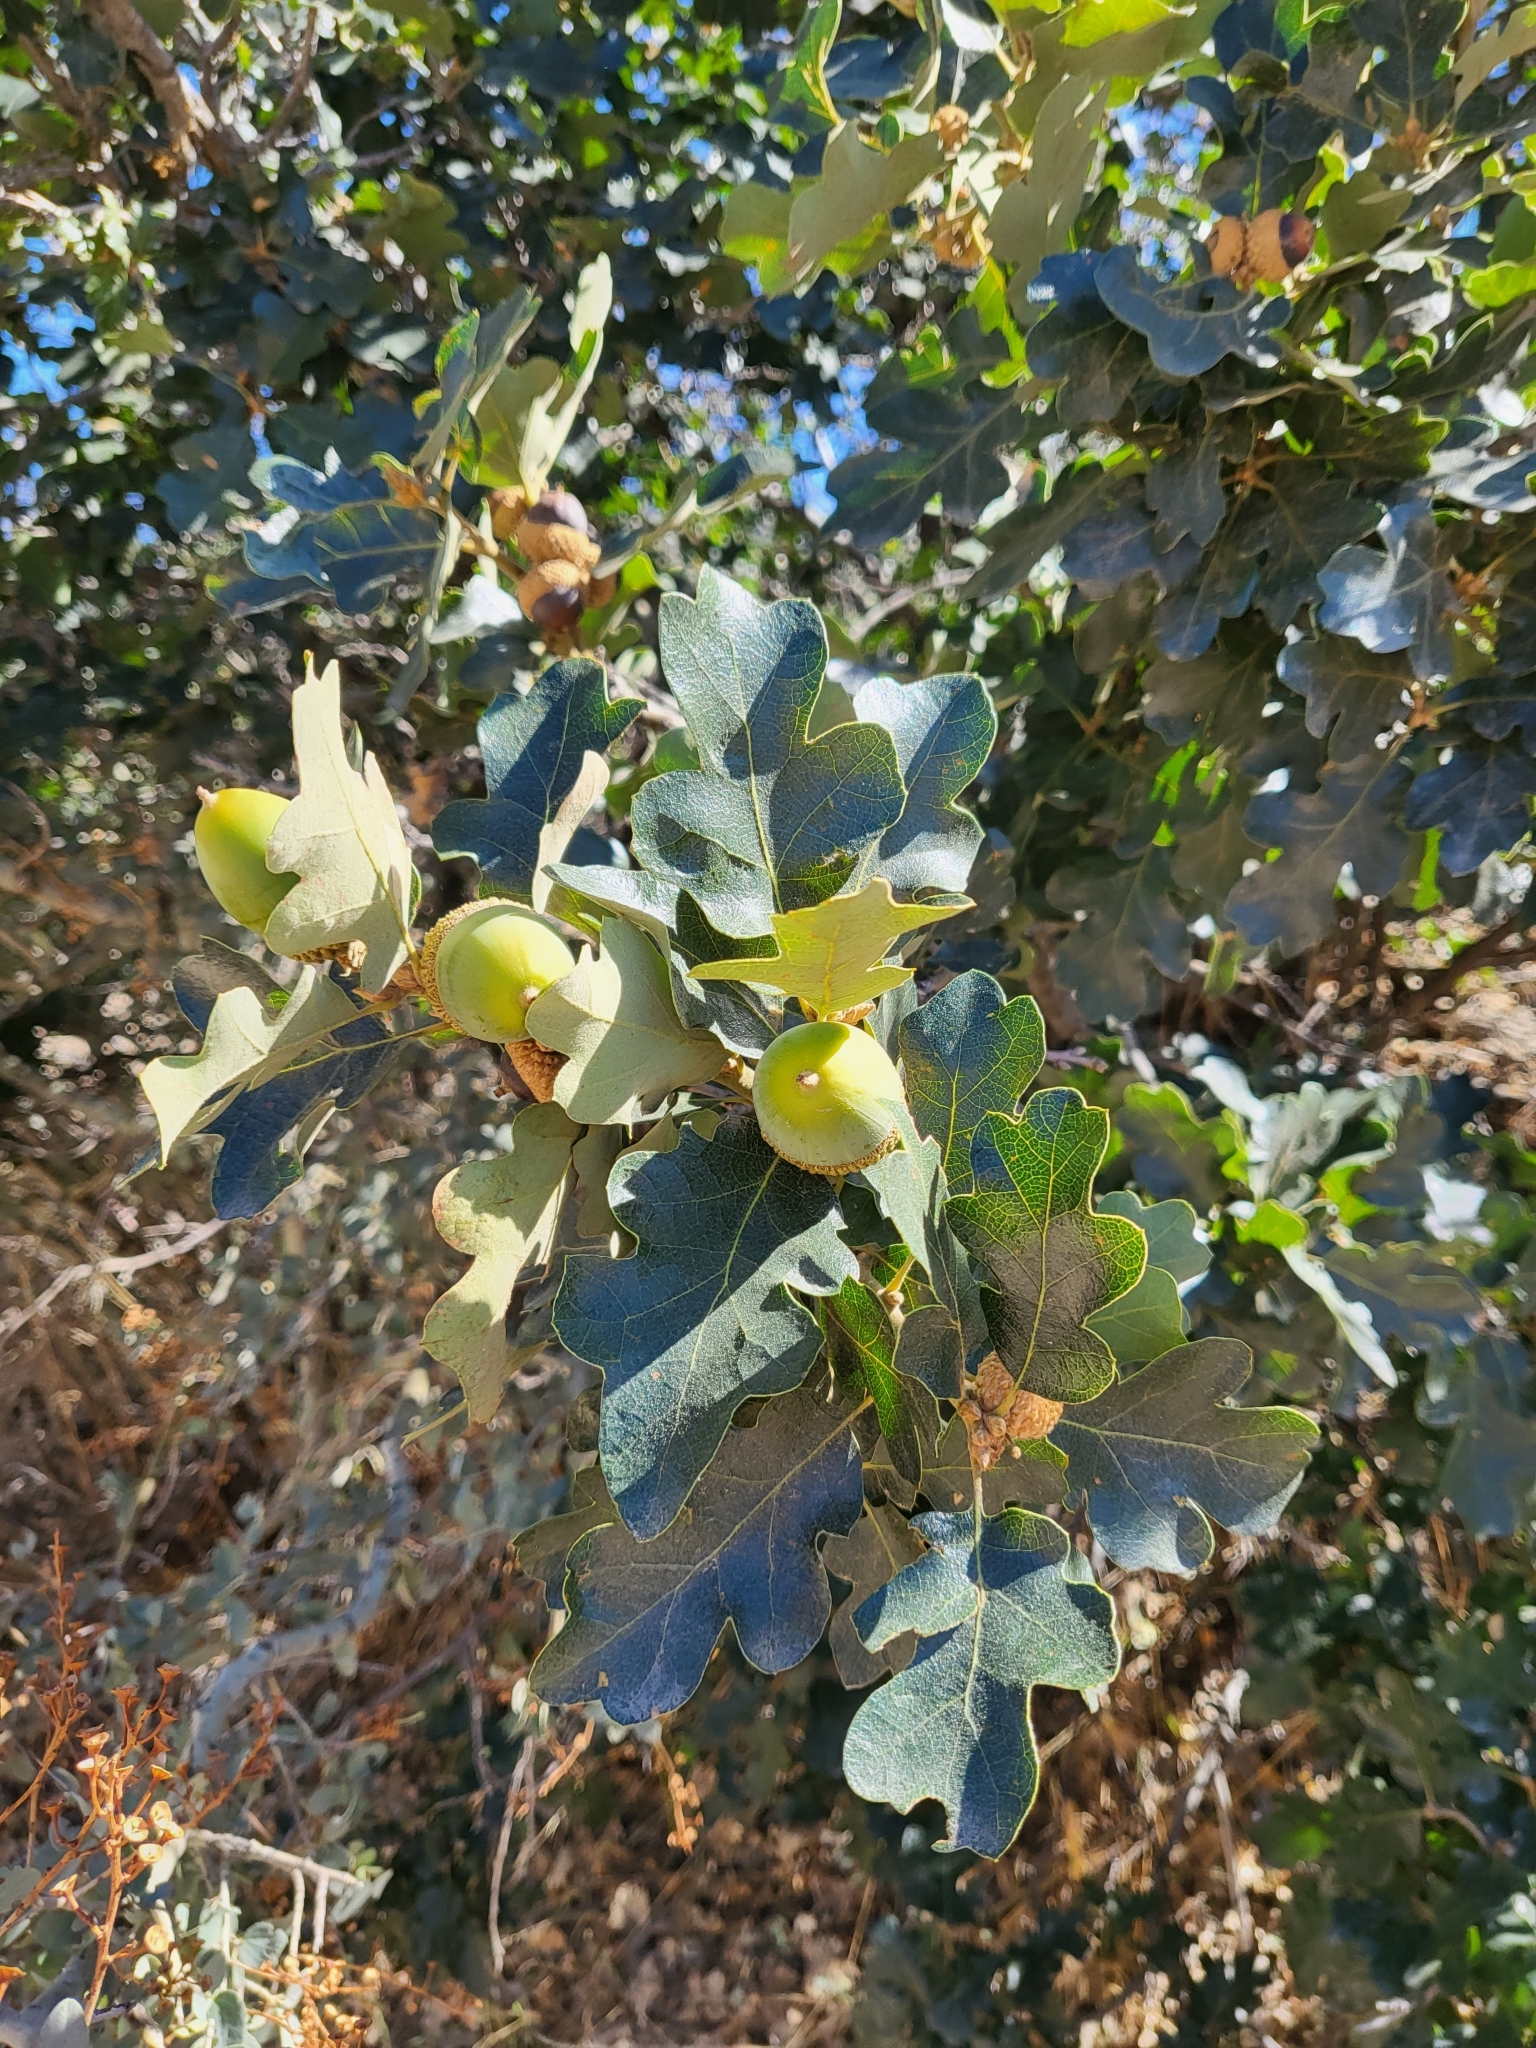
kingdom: Plantae
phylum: Tracheophyta
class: Magnoliopsida
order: Fagales
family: Fagaceae
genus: Quercus
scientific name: Quercus garryana
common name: Garry oak
